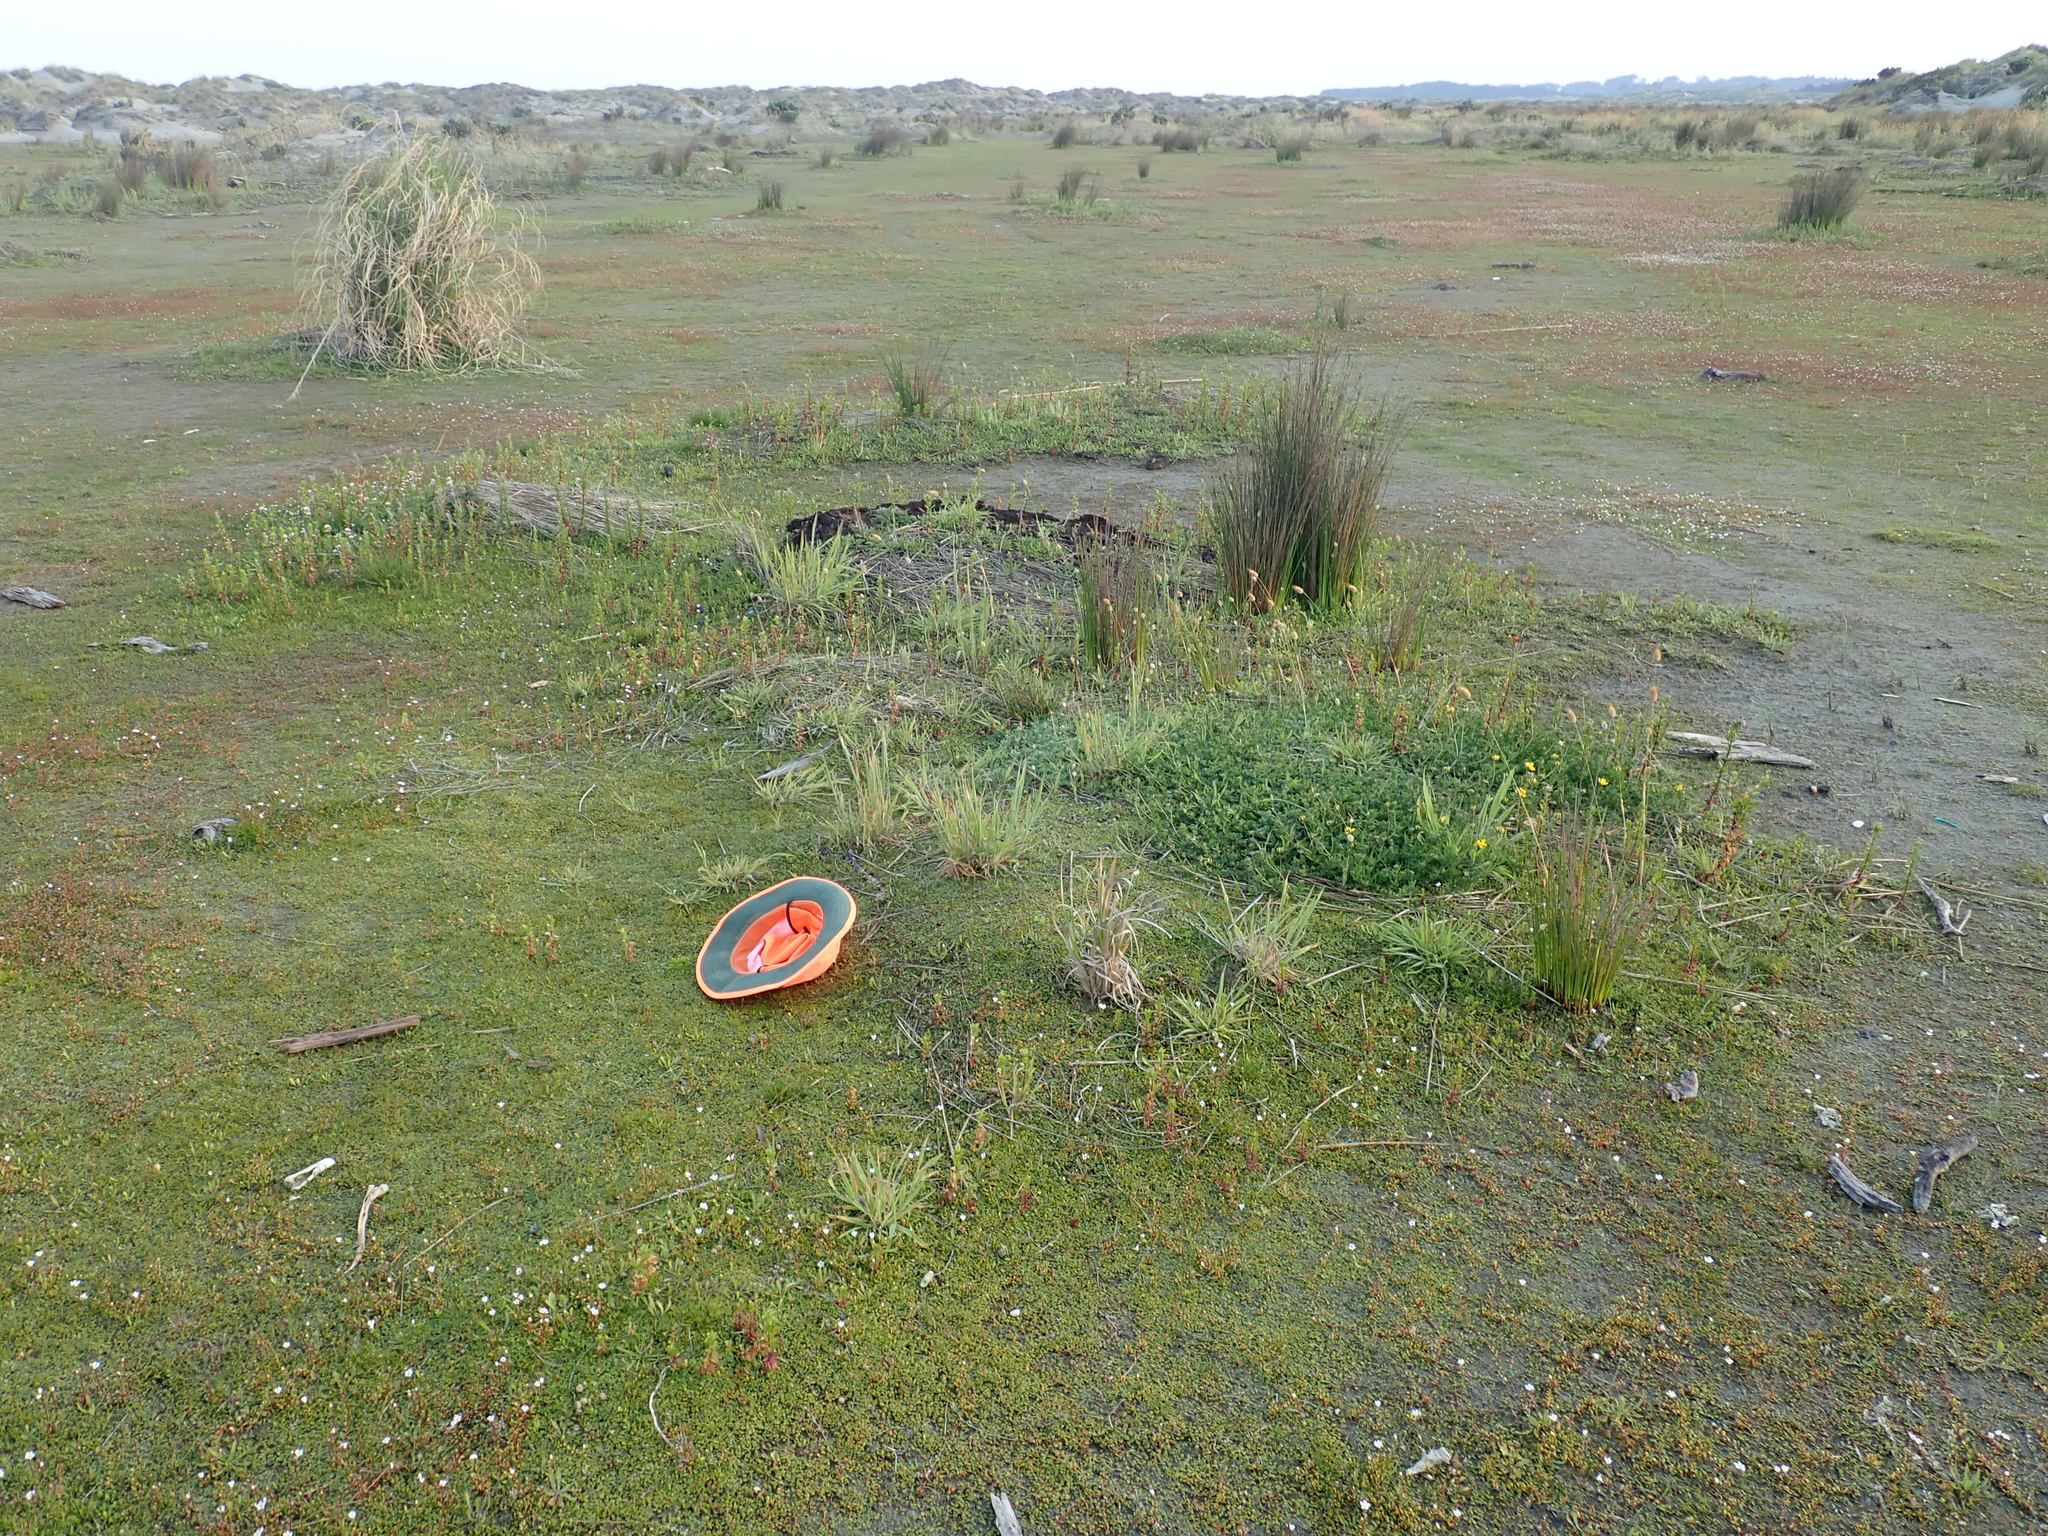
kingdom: Plantae
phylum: Tracheophyta
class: Magnoliopsida
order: Caryophyllales
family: Caryophyllaceae
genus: Sagina
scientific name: Sagina procumbens
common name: Procumbent pearlwort
